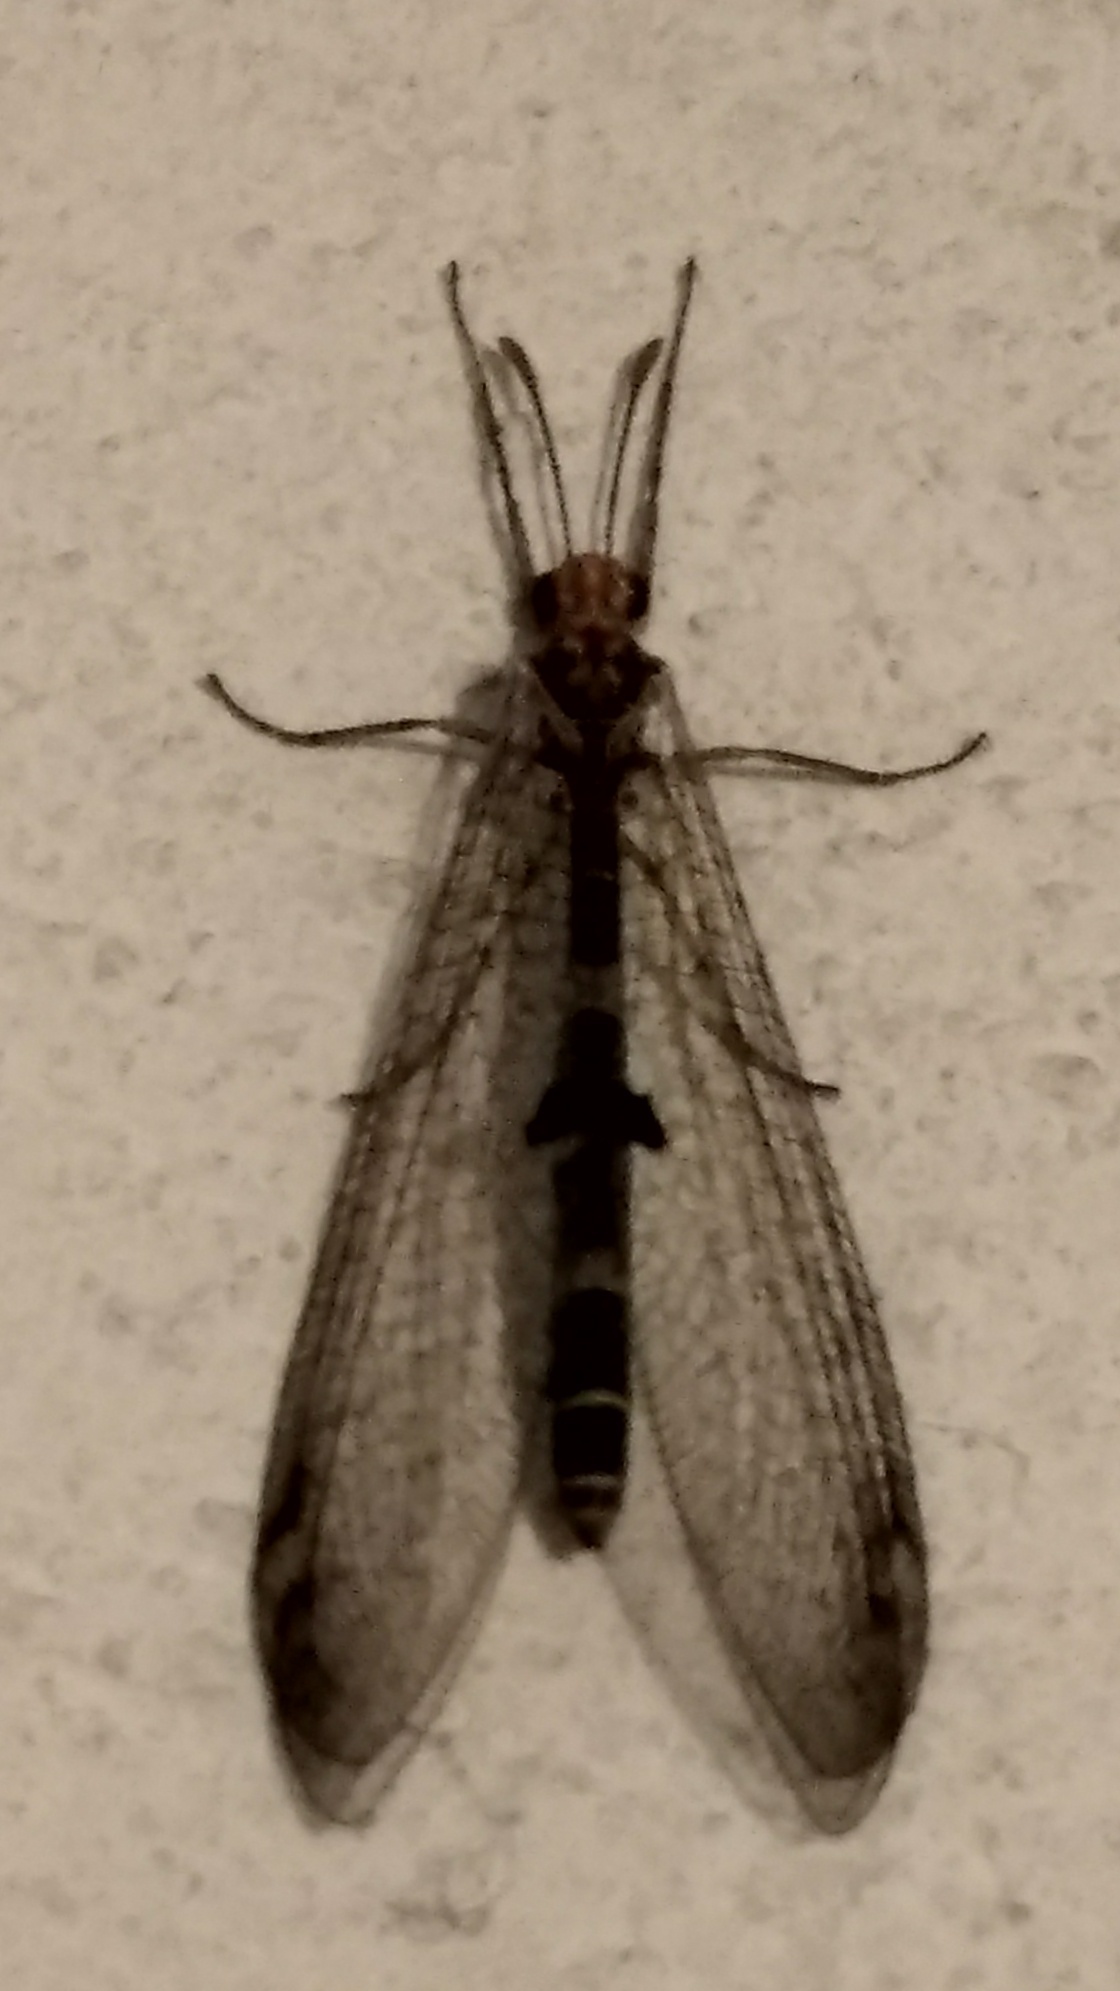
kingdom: Animalia
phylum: Arthropoda
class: Insecta
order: Neuroptera
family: Myrmeleontidae
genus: Megistopus
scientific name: Megistopus flavicornis
